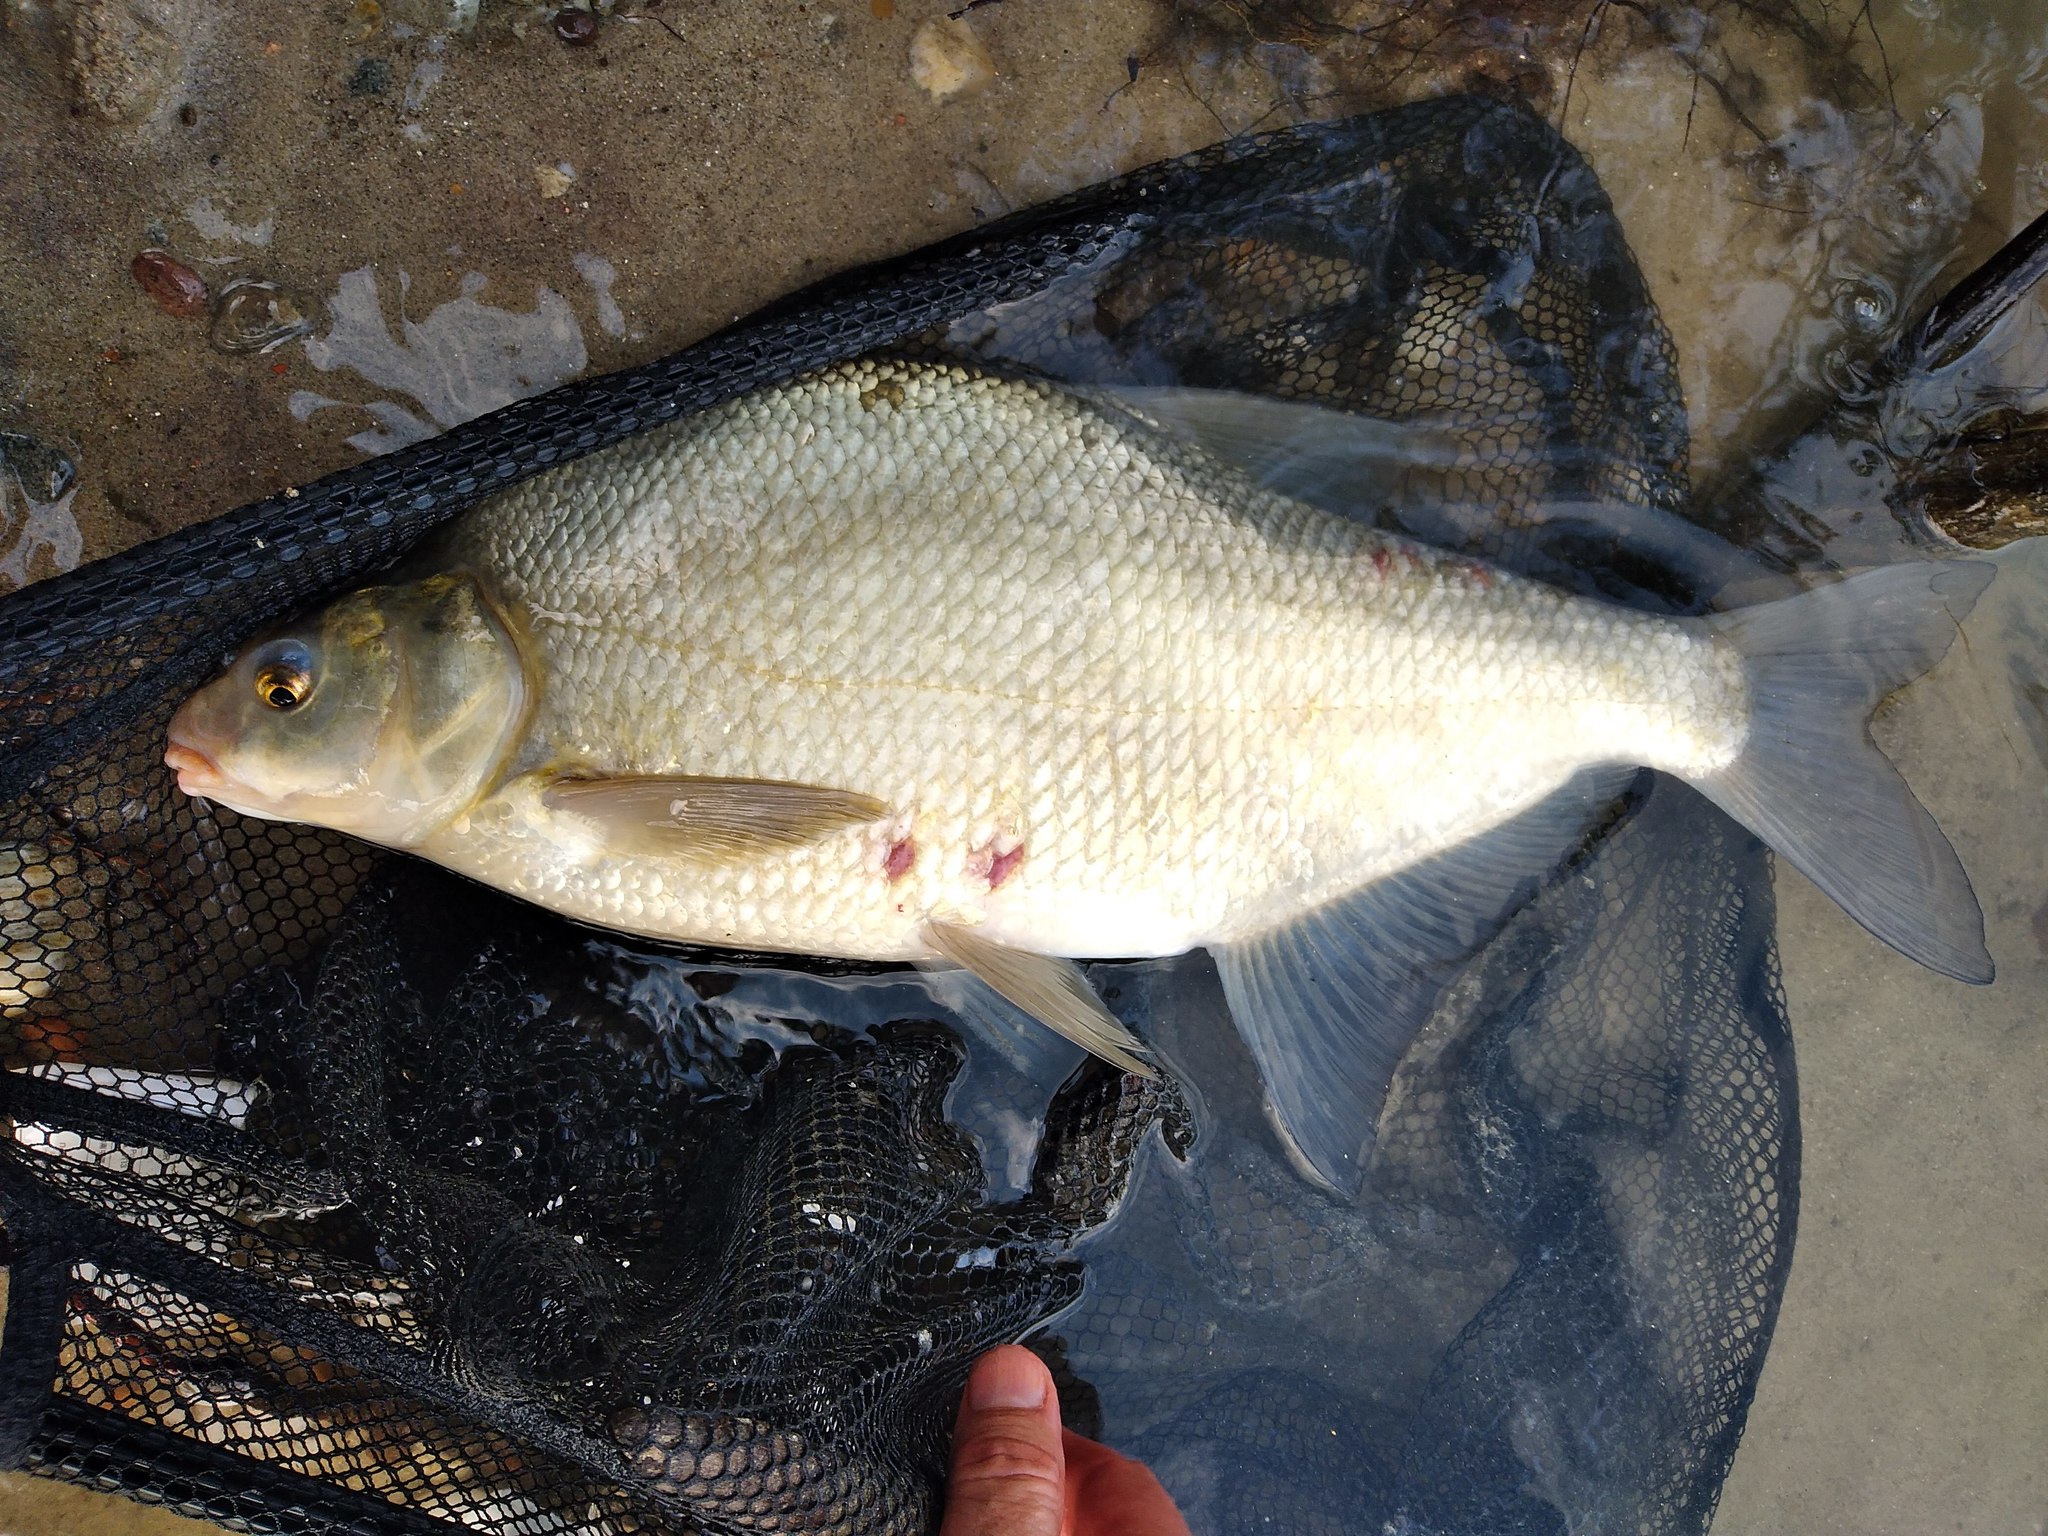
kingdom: Animalia
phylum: Chordata
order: Cypriniformes
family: Cyprinidae
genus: Abramis
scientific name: Abramis brama
